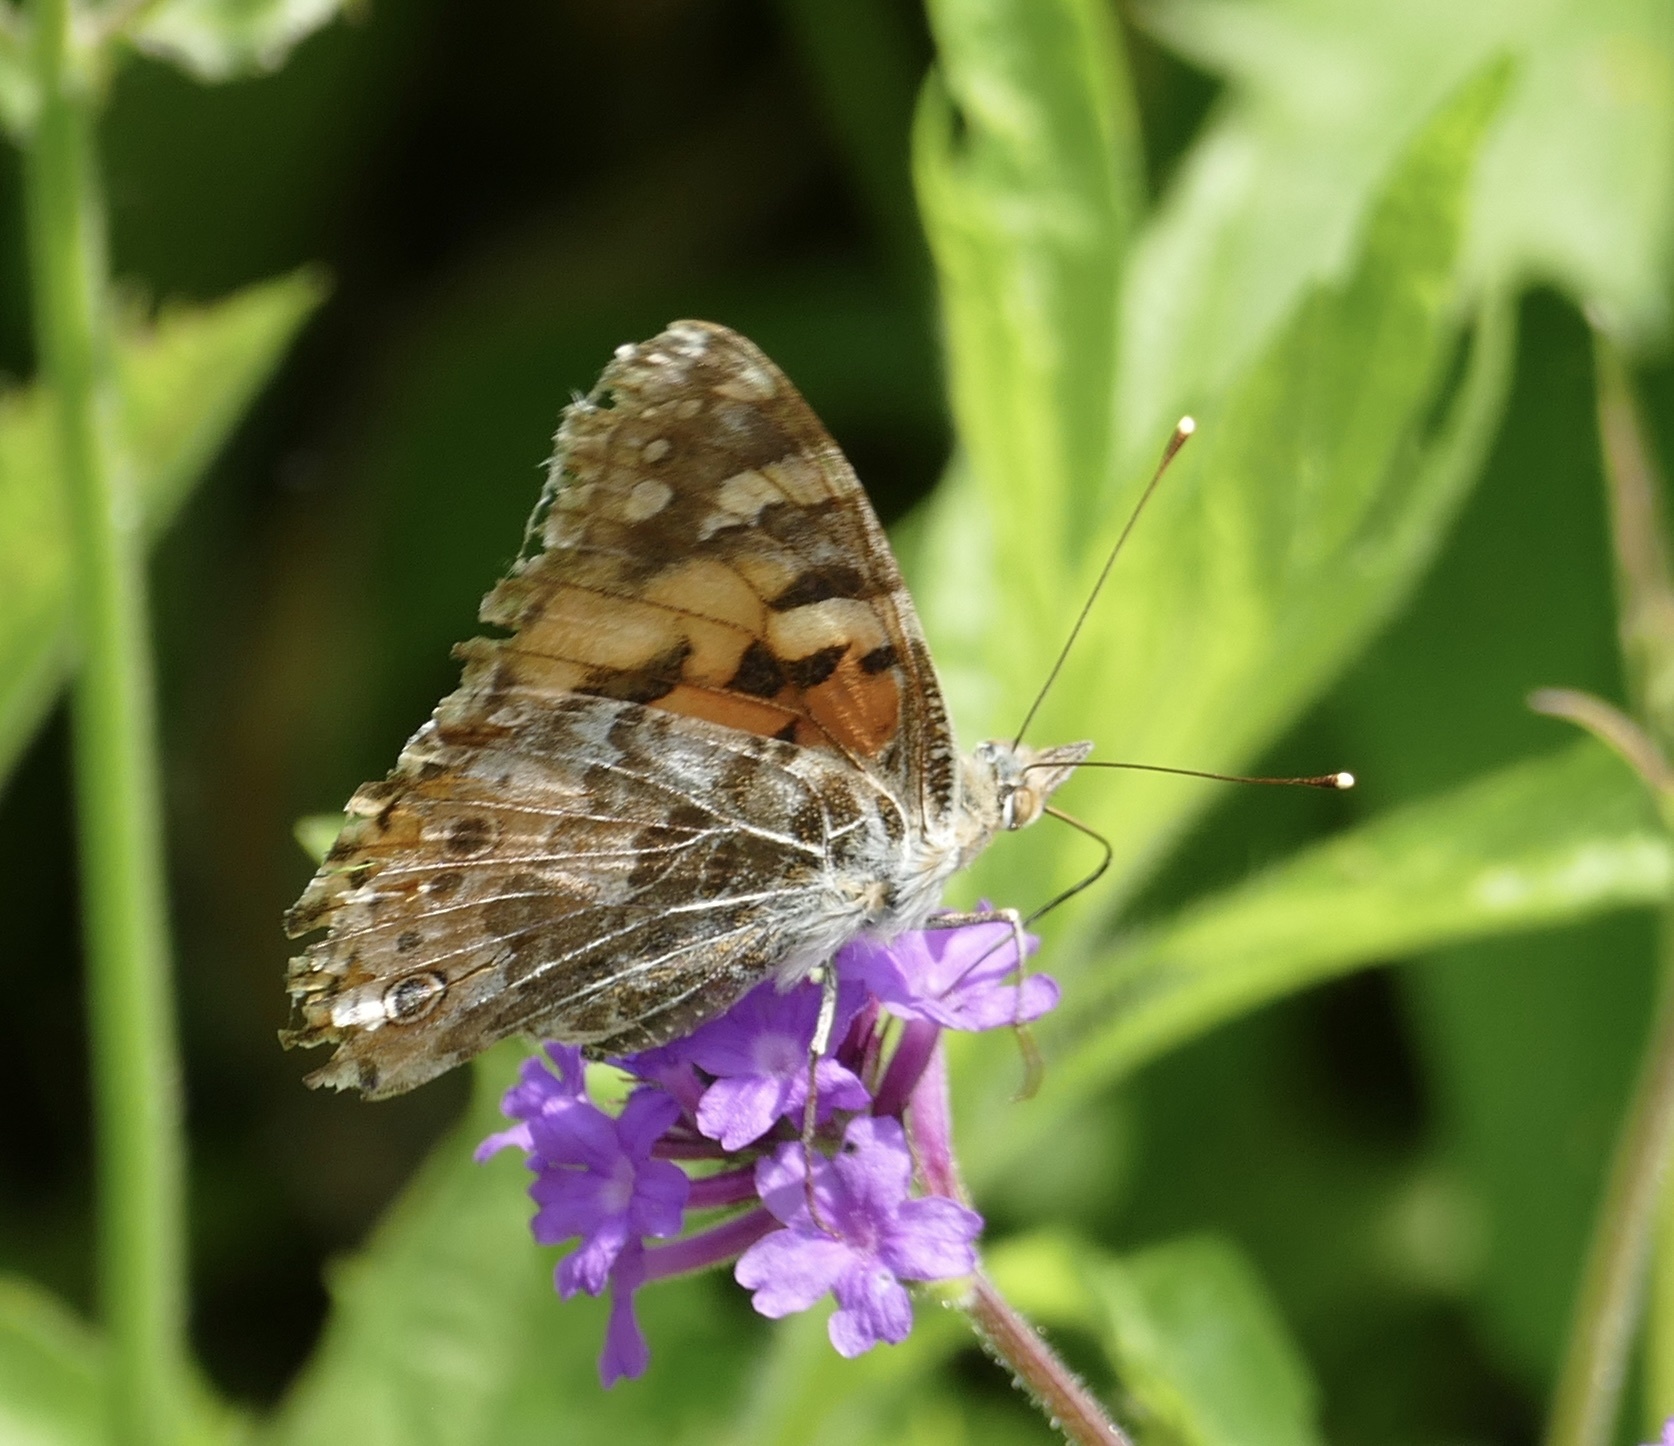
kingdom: Animalia
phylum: Arthropoda
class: Insecta
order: Lepidoptera
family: Nymphalidae
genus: Vanessa
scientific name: Vanessa cardui
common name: Painted lady
